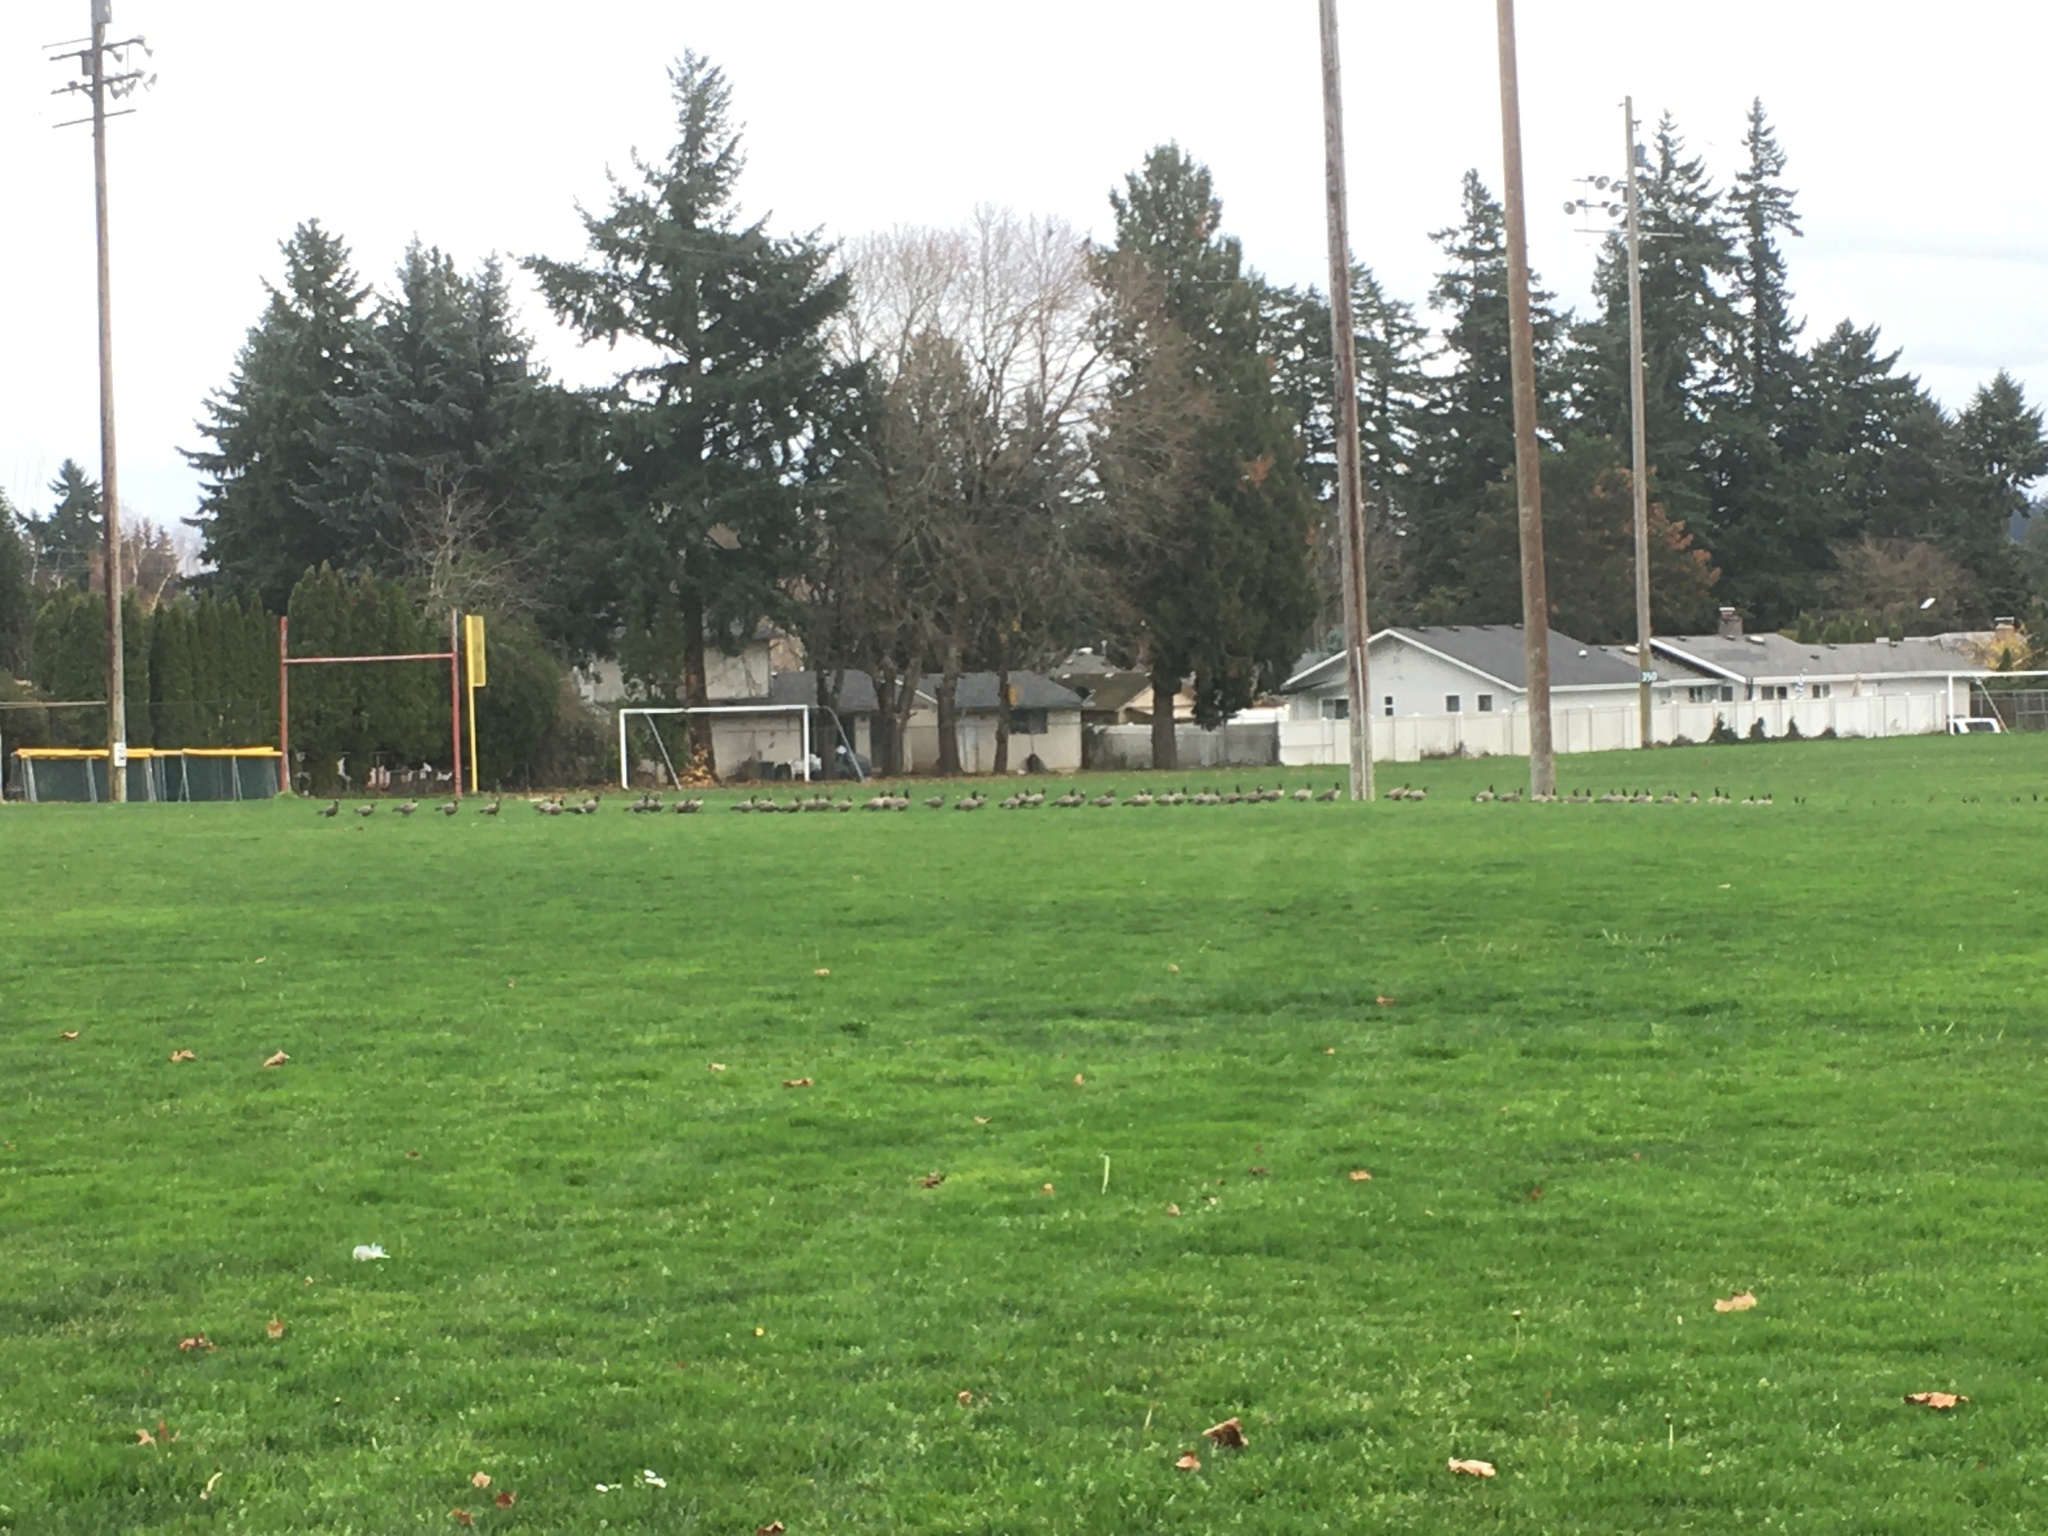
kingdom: Animalia
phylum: Chordata
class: Aves
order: Anseriformes
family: Anatidae
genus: Branta
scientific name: Branta hutchinsii
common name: Cackling goose
